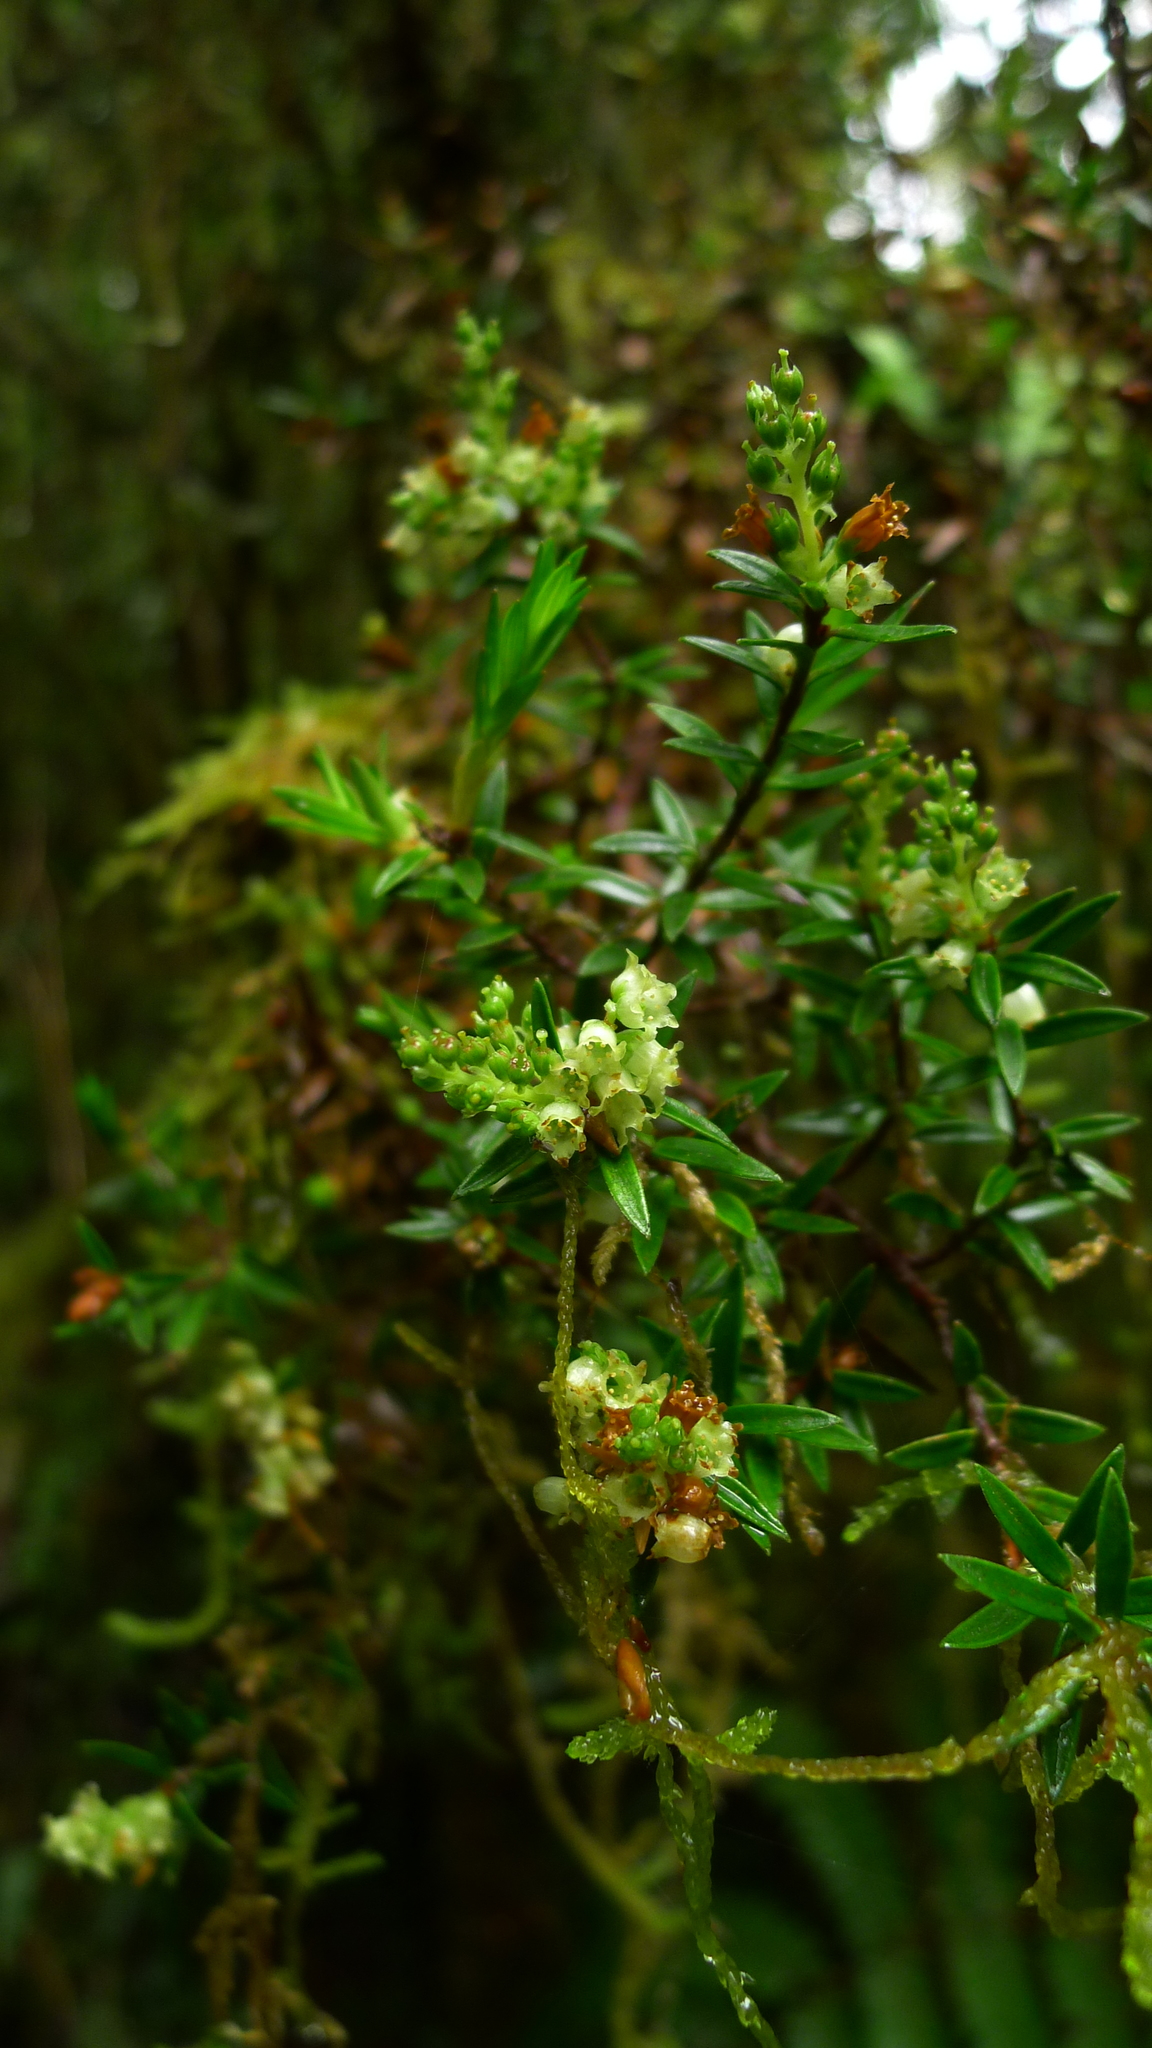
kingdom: Plantae
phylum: Tracheophyta
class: Magnoliopsida
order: Ericales
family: Ericaceae
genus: Archeria
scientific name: Archeria traversii
